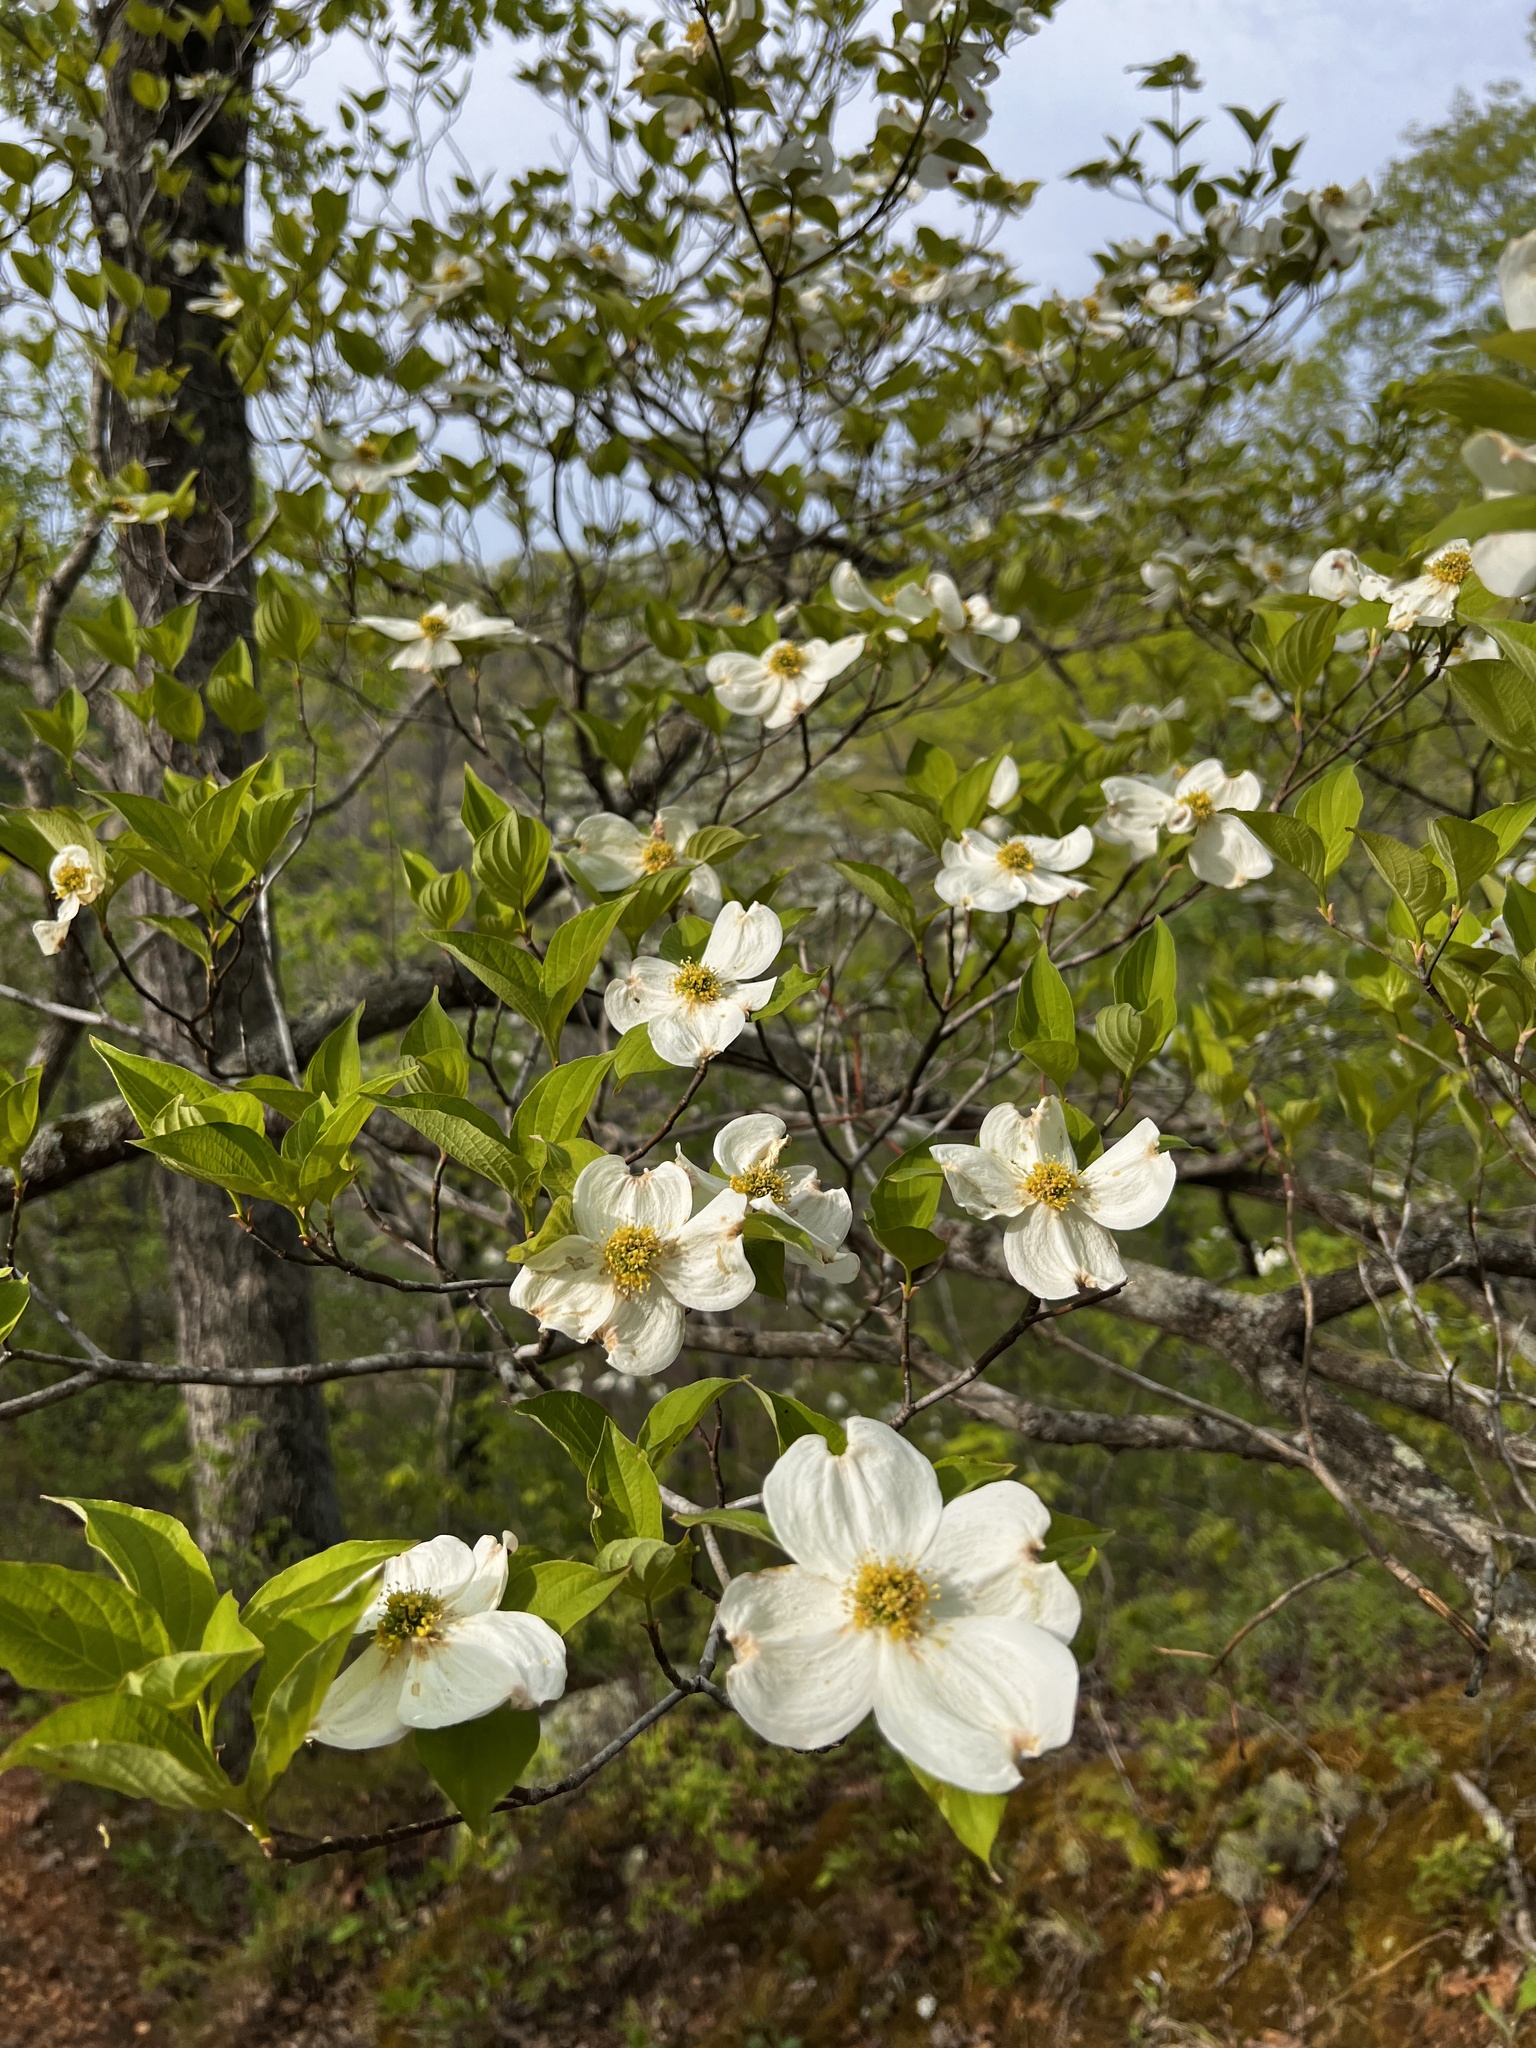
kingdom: Plantae
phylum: Tracheophyta
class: Magnoliopsida
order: Cornales
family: Cornaceae
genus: Cornus
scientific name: Cornus florida
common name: Flowering dogwood
